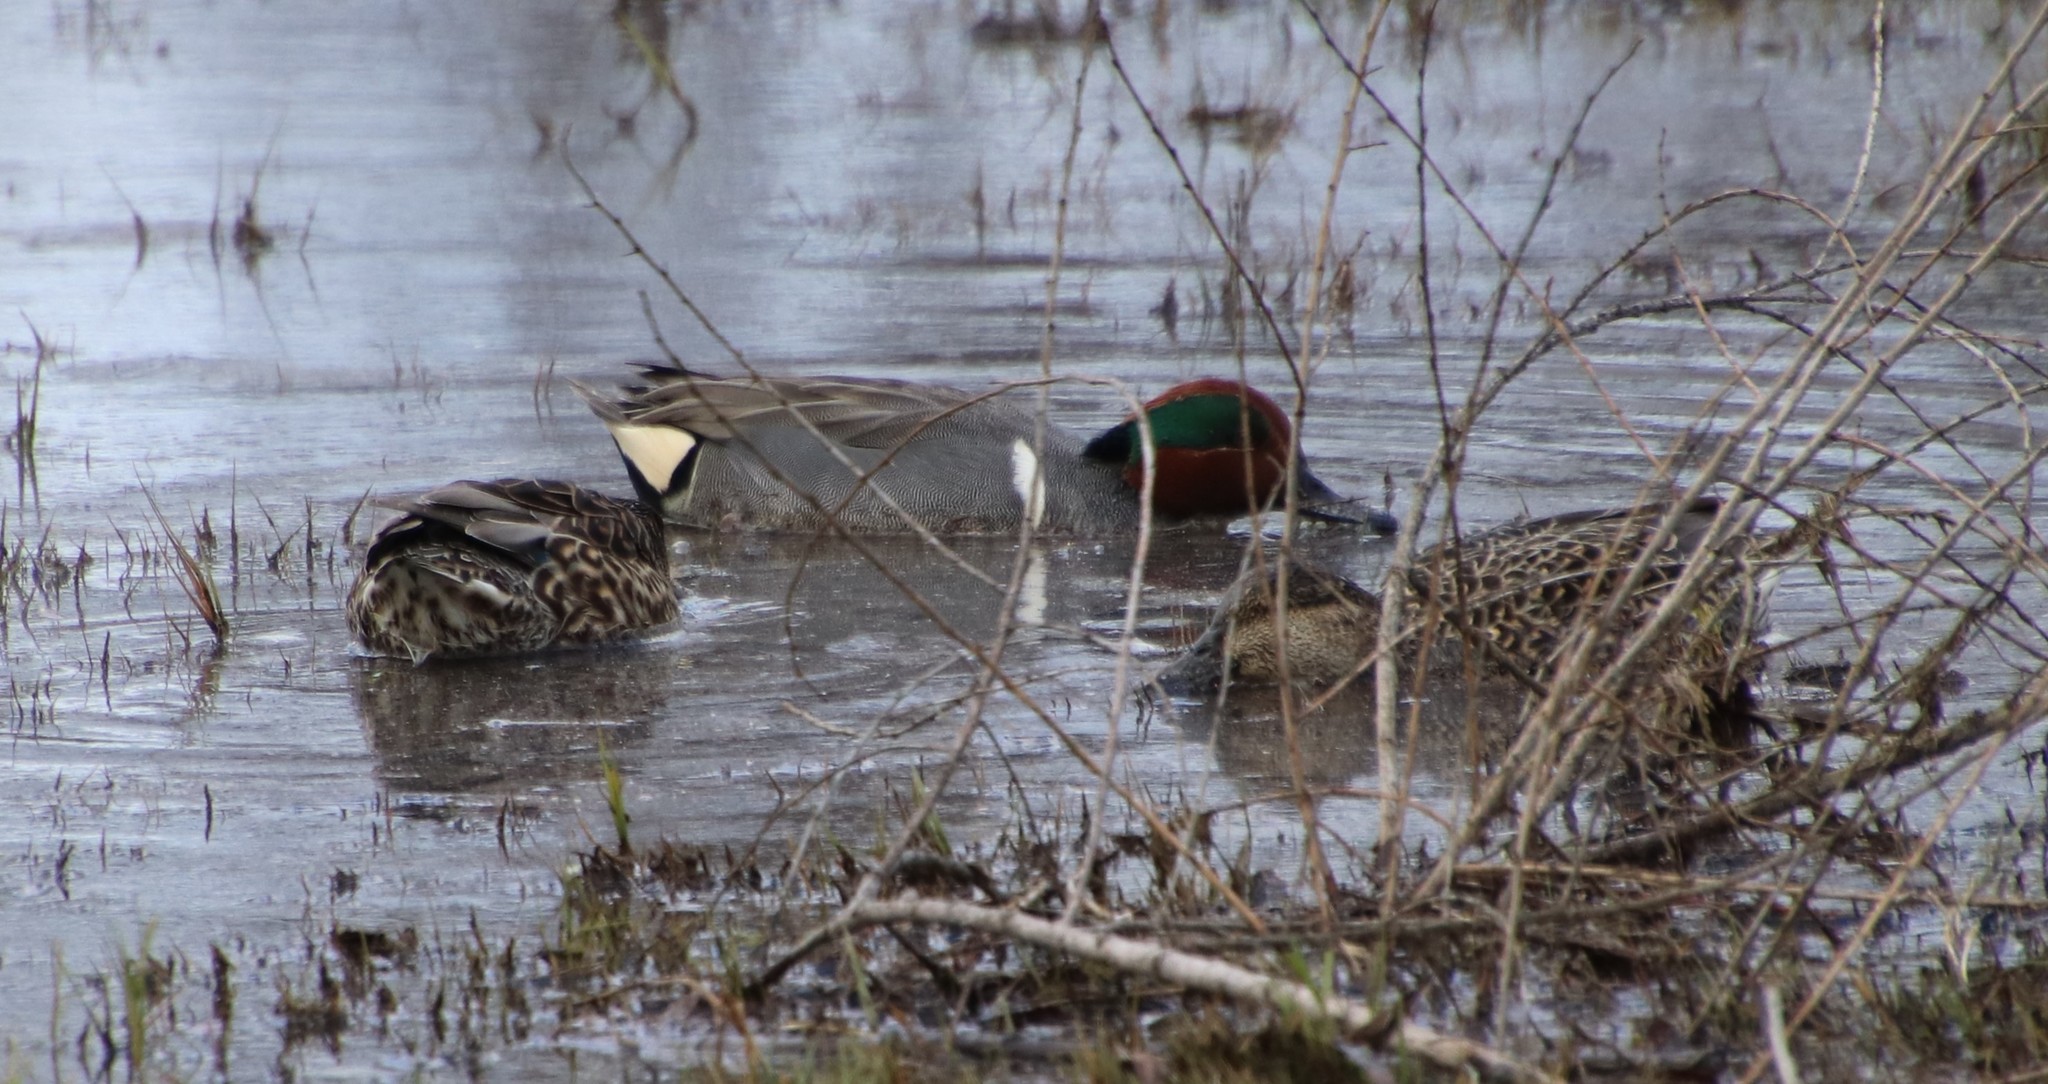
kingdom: Animalia
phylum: Chordata
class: Aves
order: Anseriformes
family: Anatidae
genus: Anas
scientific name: Anas crecca
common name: Eurasian teal
